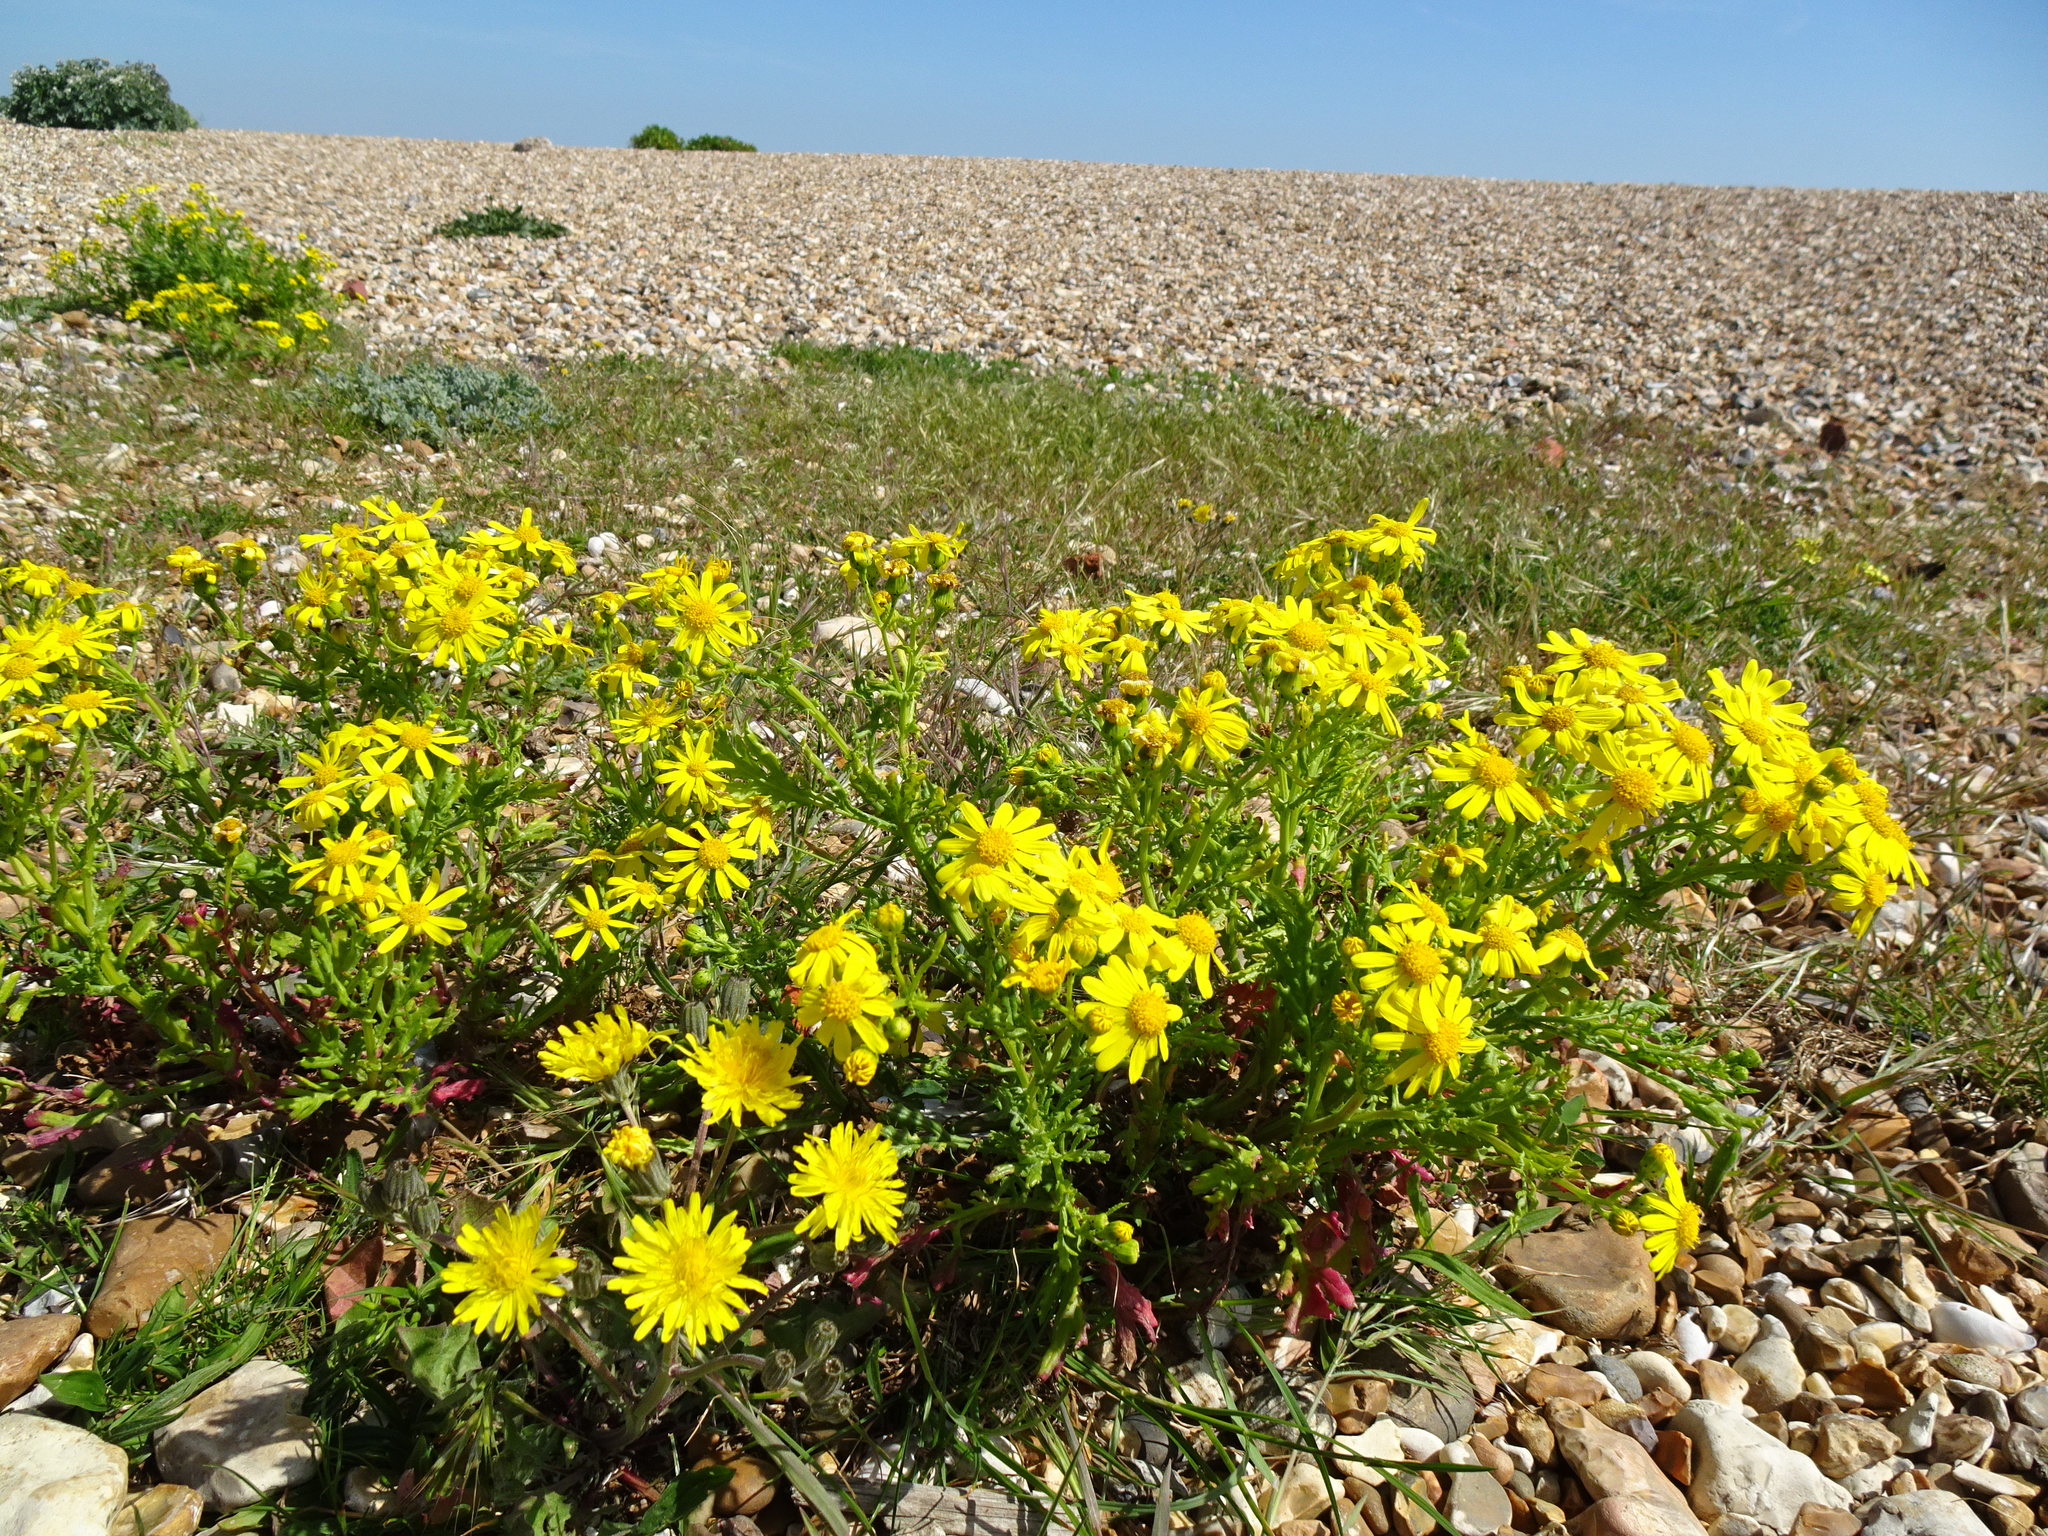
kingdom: Plantae
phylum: Tracheophyta
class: Magnoliopsida
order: Asterales
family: Asteraceae
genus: Senecio
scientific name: Senecio squalidus
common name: Oxford ragwort
